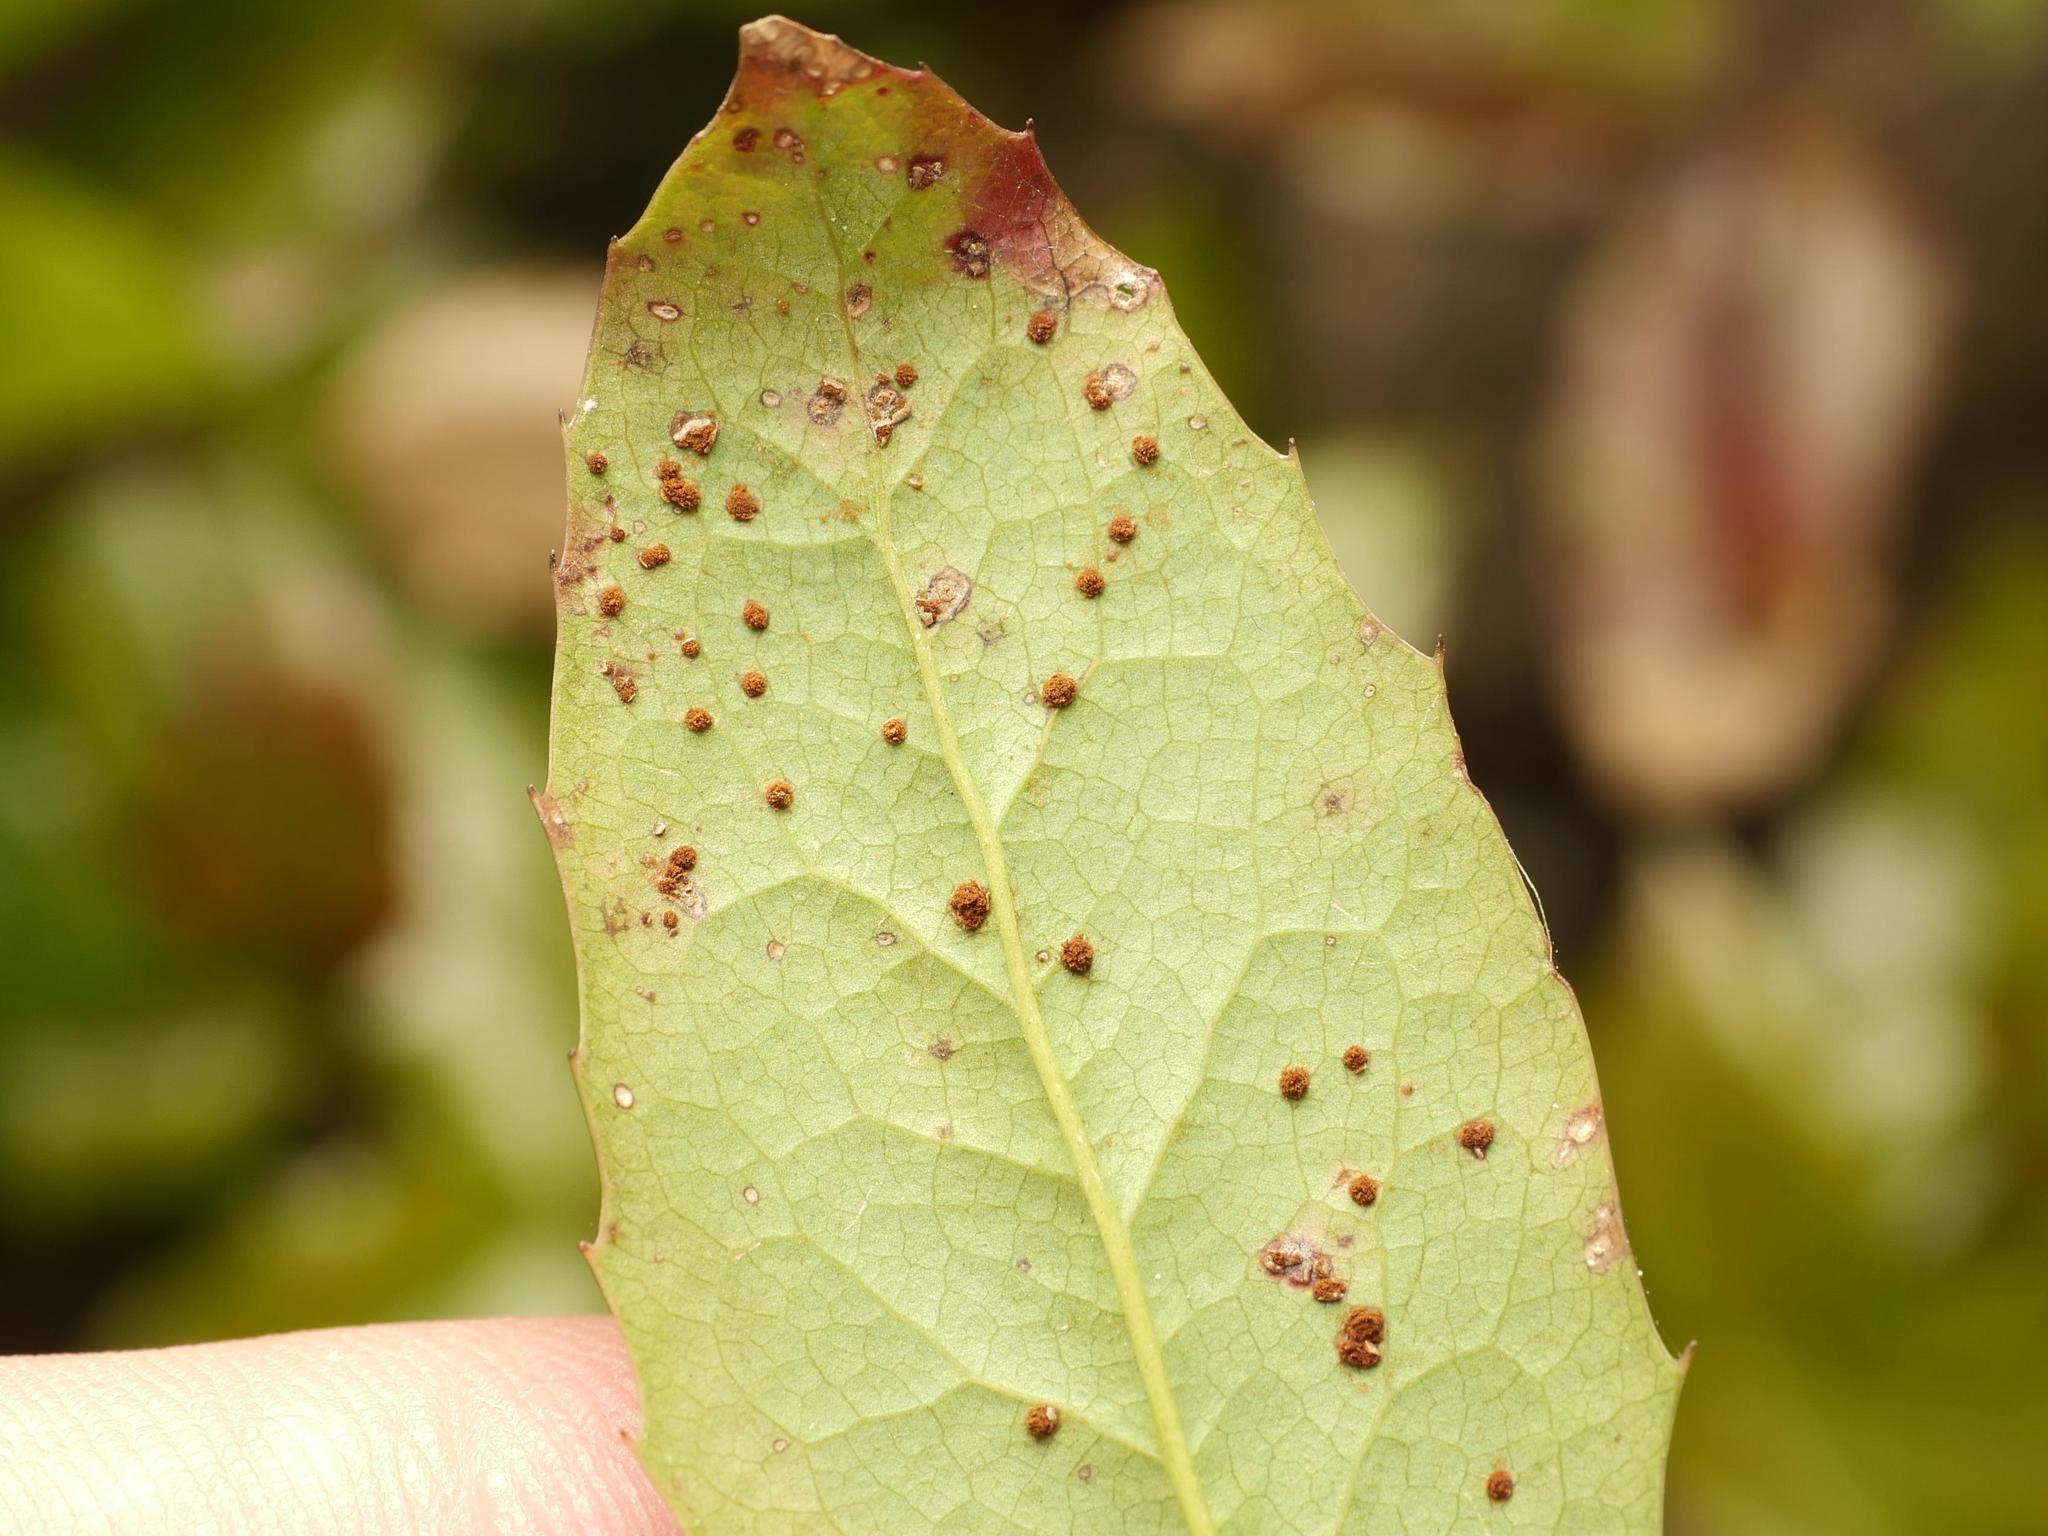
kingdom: Fungi
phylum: Basidiomycota
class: Pucciniomycetes
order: Pucciniales
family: Pucciniaceae
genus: Cumminsiella
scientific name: Cumminsiella mirabilissima
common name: Mahonia rust
